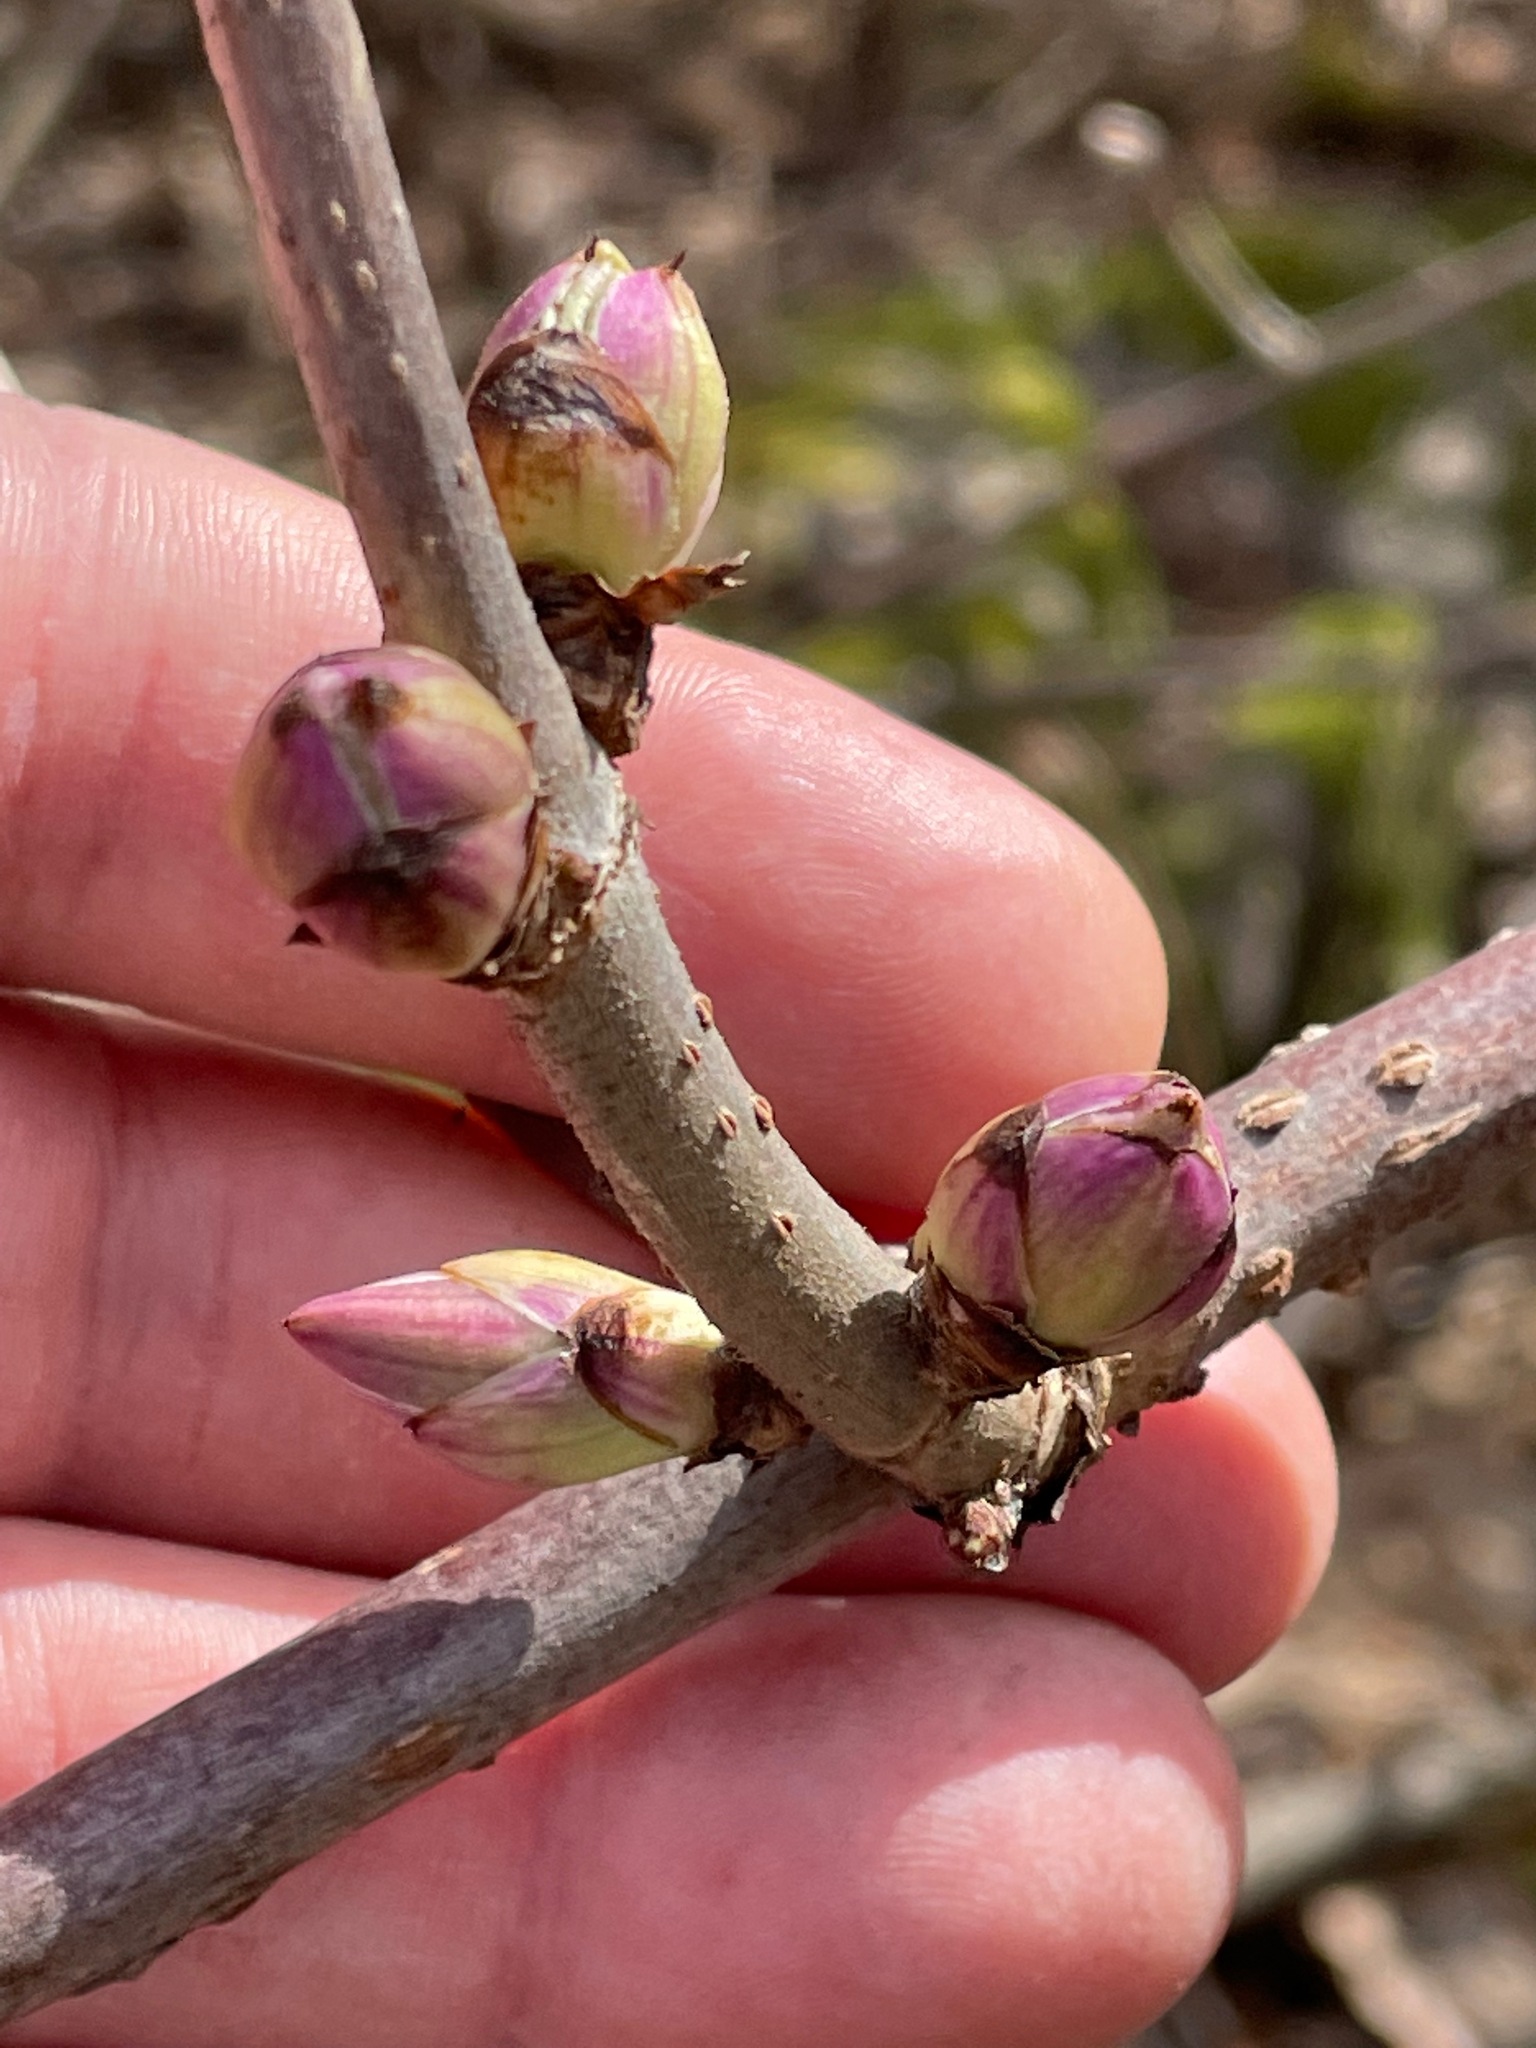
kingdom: Plantae
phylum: Tracheophyta
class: Magnoliopsida
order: Dipsacales
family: Viburnaceae
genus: Sambucus
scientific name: Sambucus racemosa
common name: Red-berried elder
